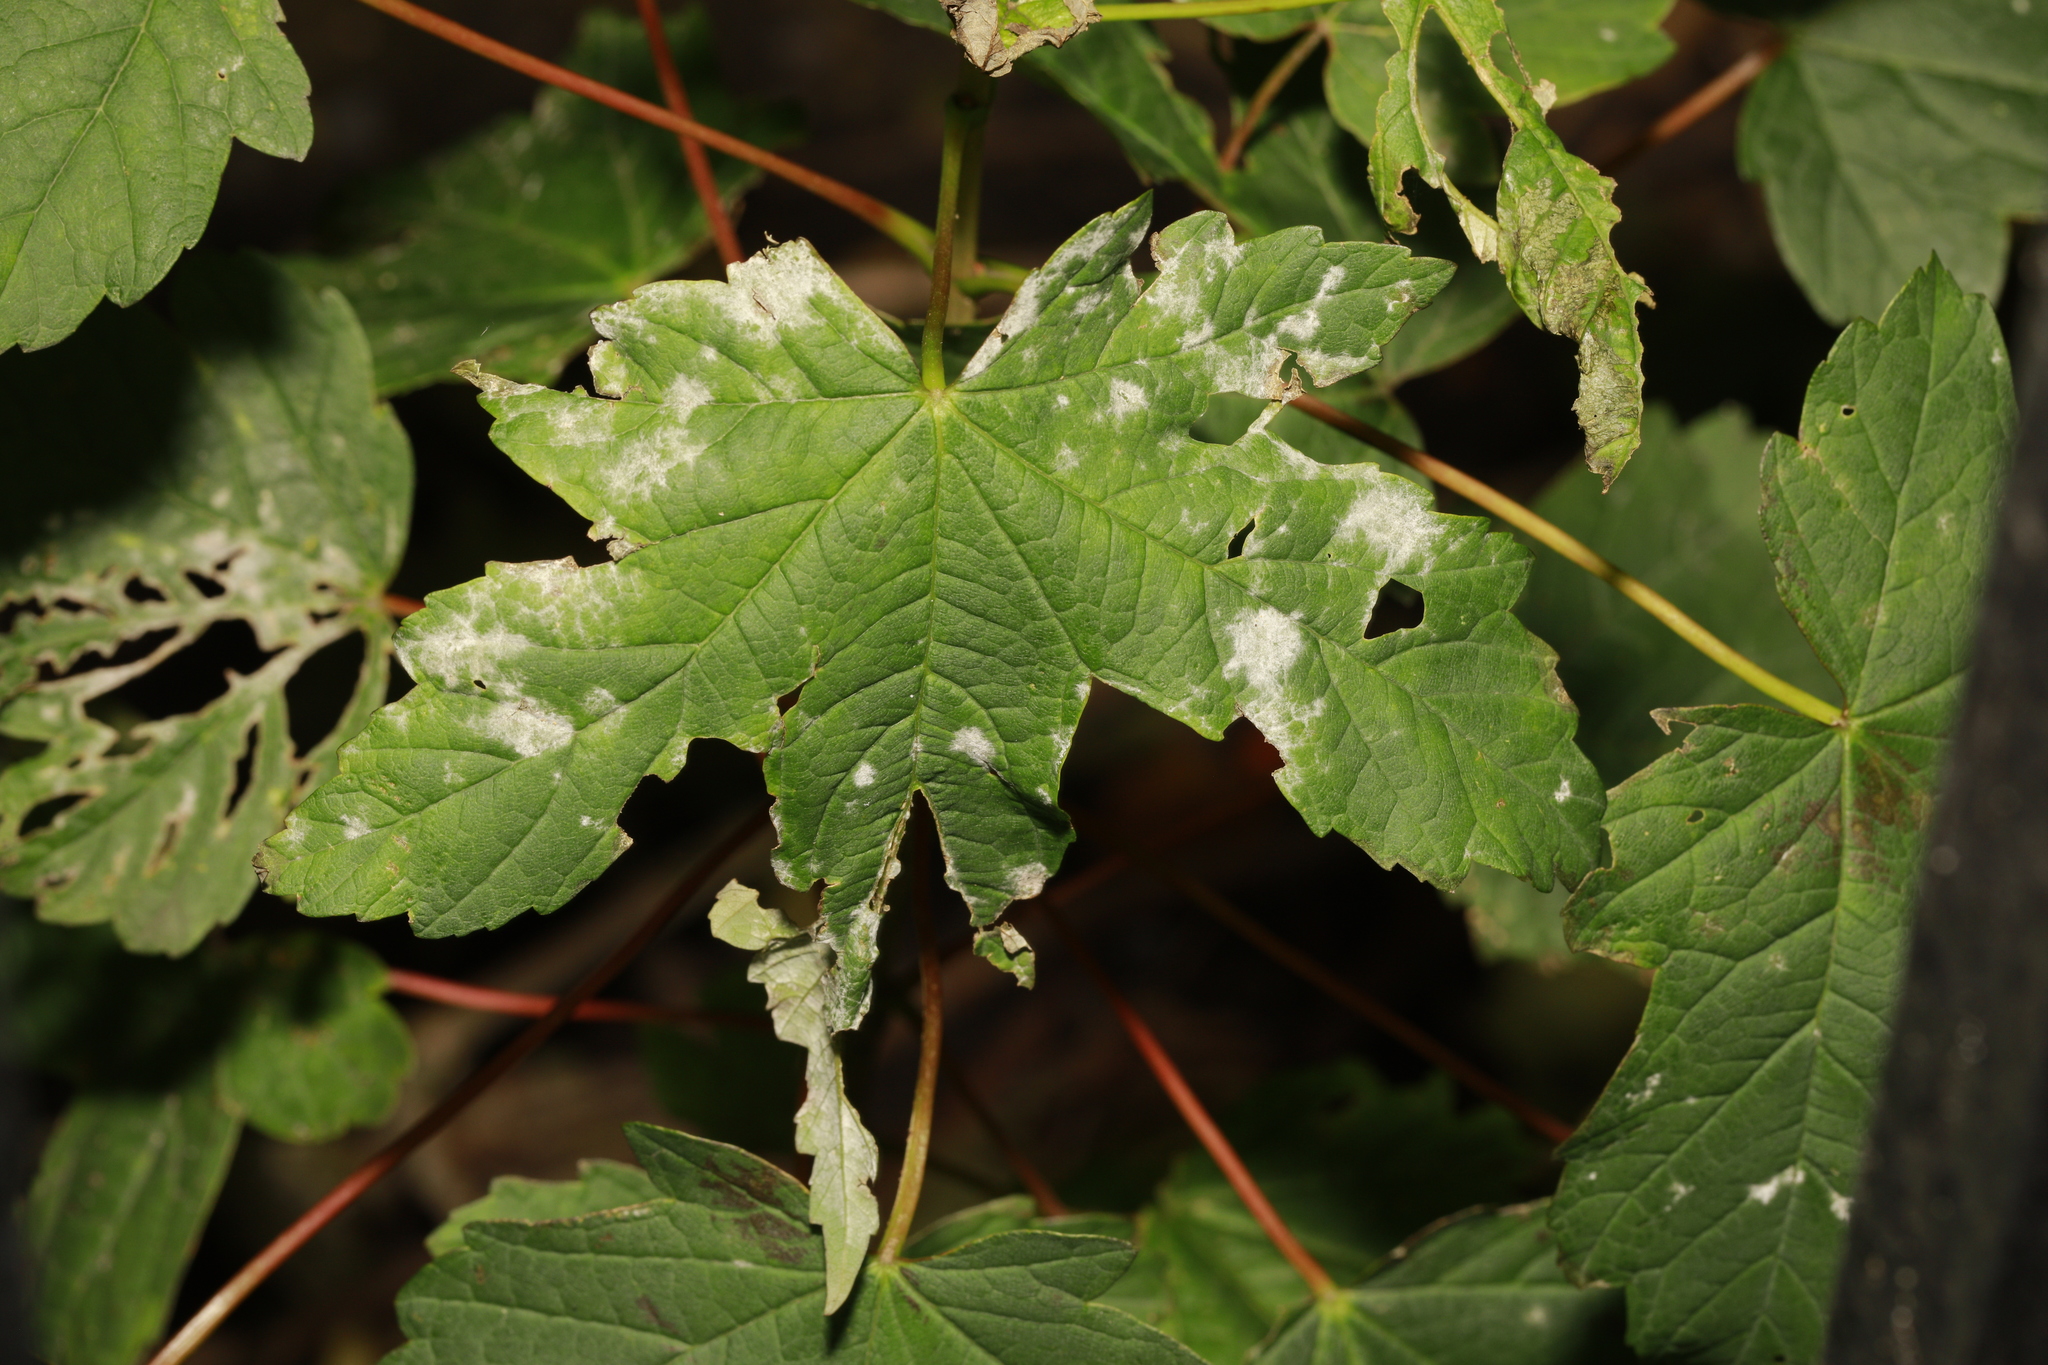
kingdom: Fungi
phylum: Ascomycota
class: Leotiomycetes
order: Helotiales
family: Erysiphaceae
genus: Sawadaea
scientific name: Sawadaea bicornis
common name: Maple mildew
